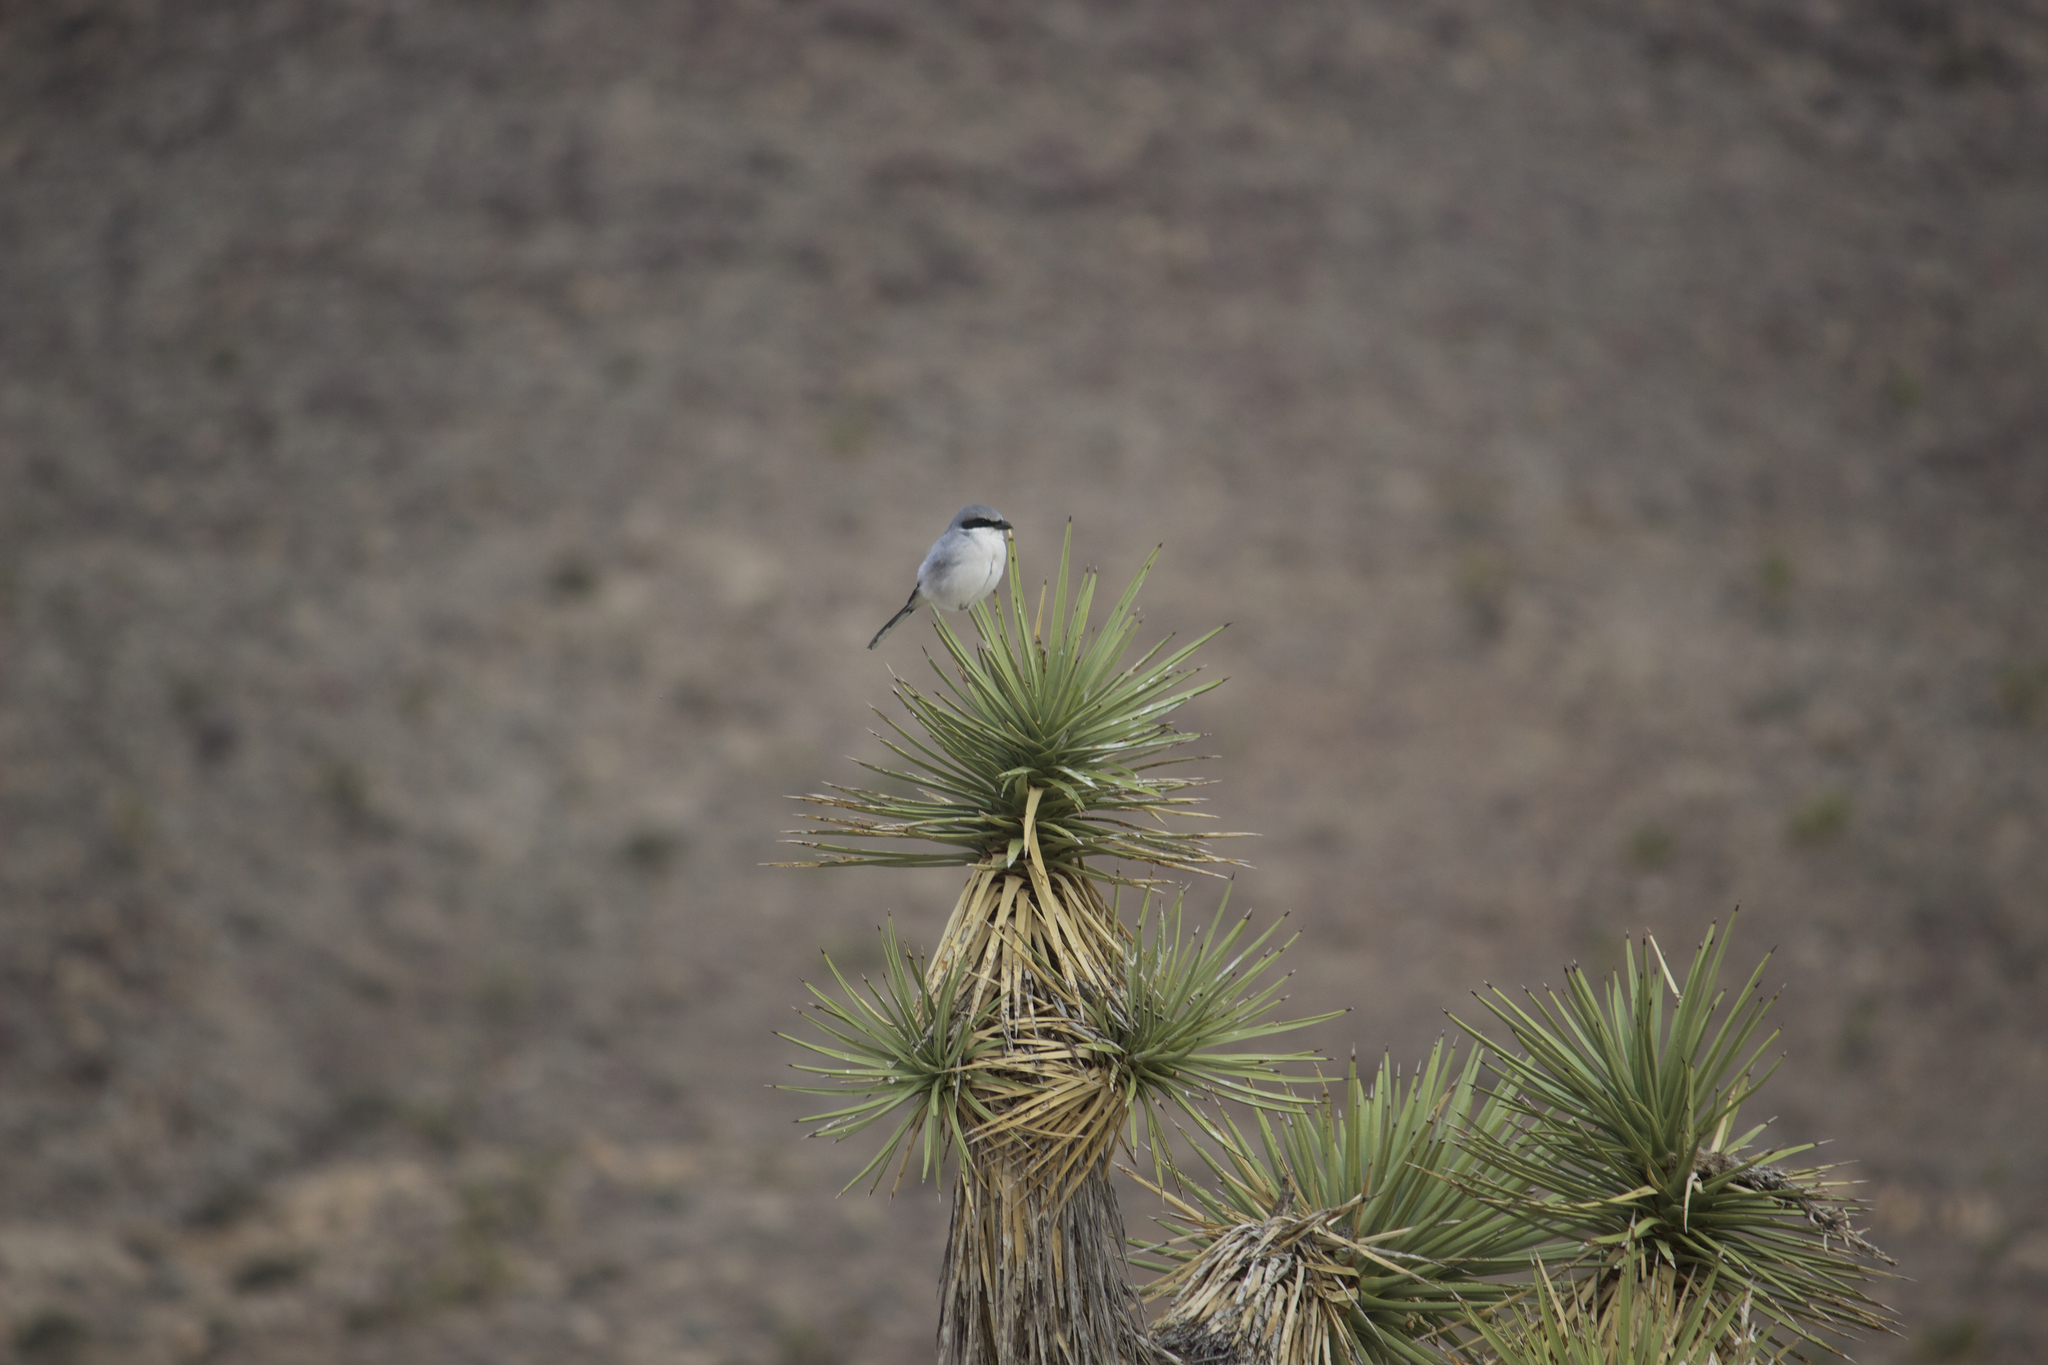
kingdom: Animalia
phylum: Chordata
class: Aves
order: Passeriformes
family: Laniidae
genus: Lanius
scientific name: Lanius ludovicianus
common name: Loggerhead shrike
